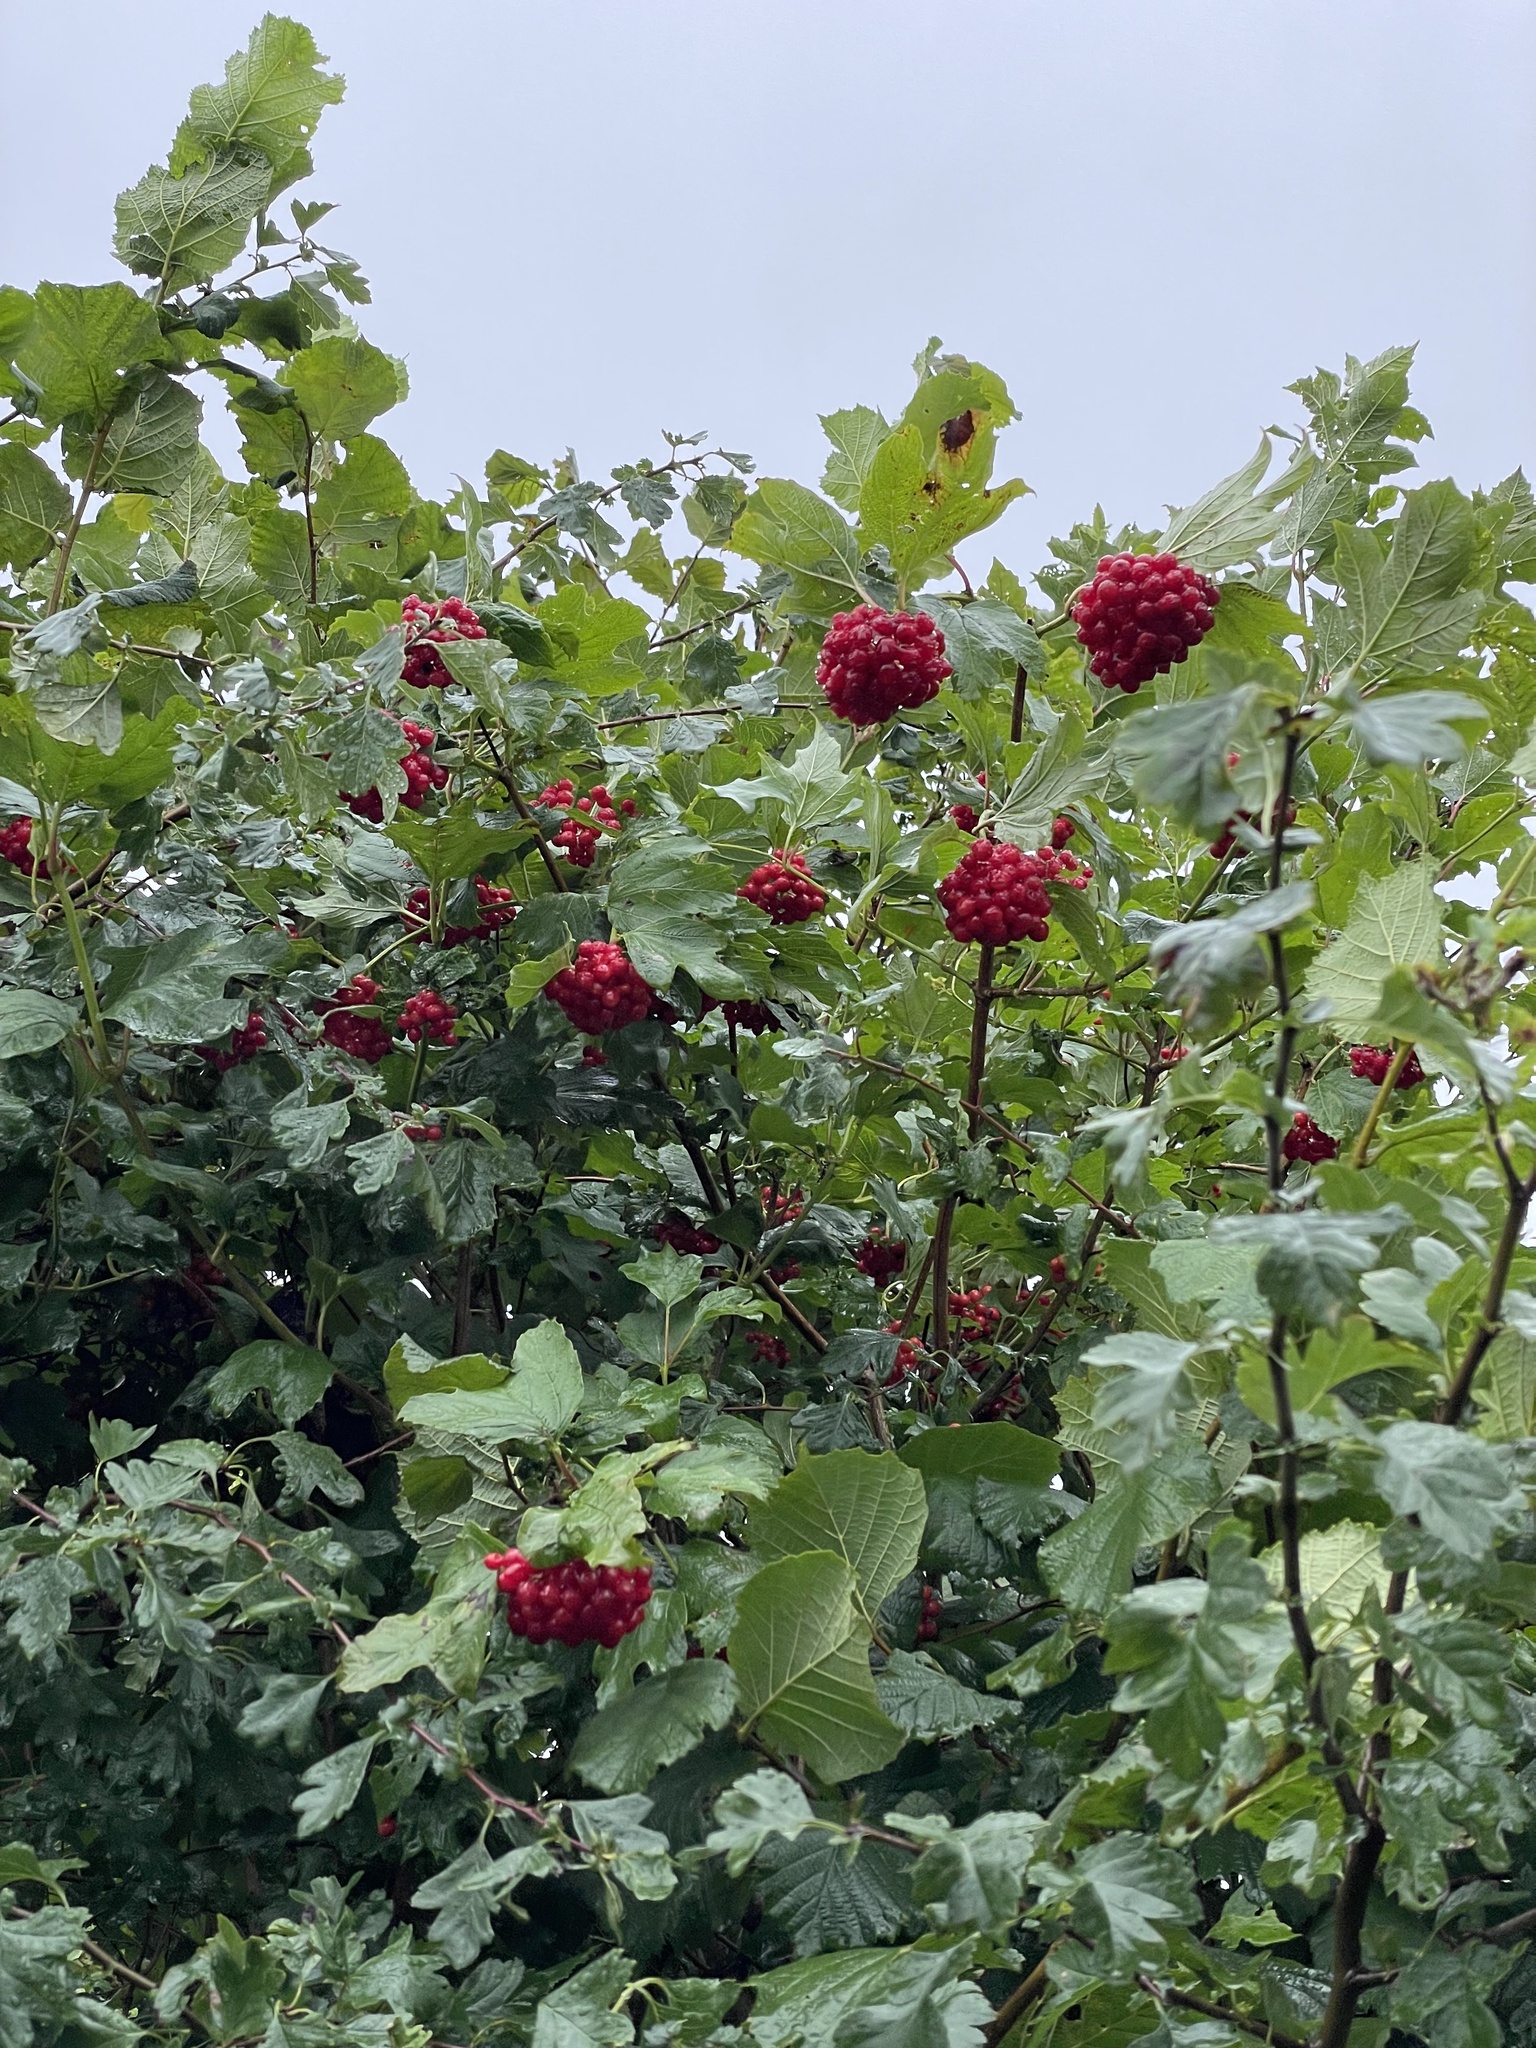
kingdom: Plantae
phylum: Tracheophyta
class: Magnoliopsida
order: Dipsacales
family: Viburnaceae
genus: Viburnum
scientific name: Viburnum opulus
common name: Guelder-rose
